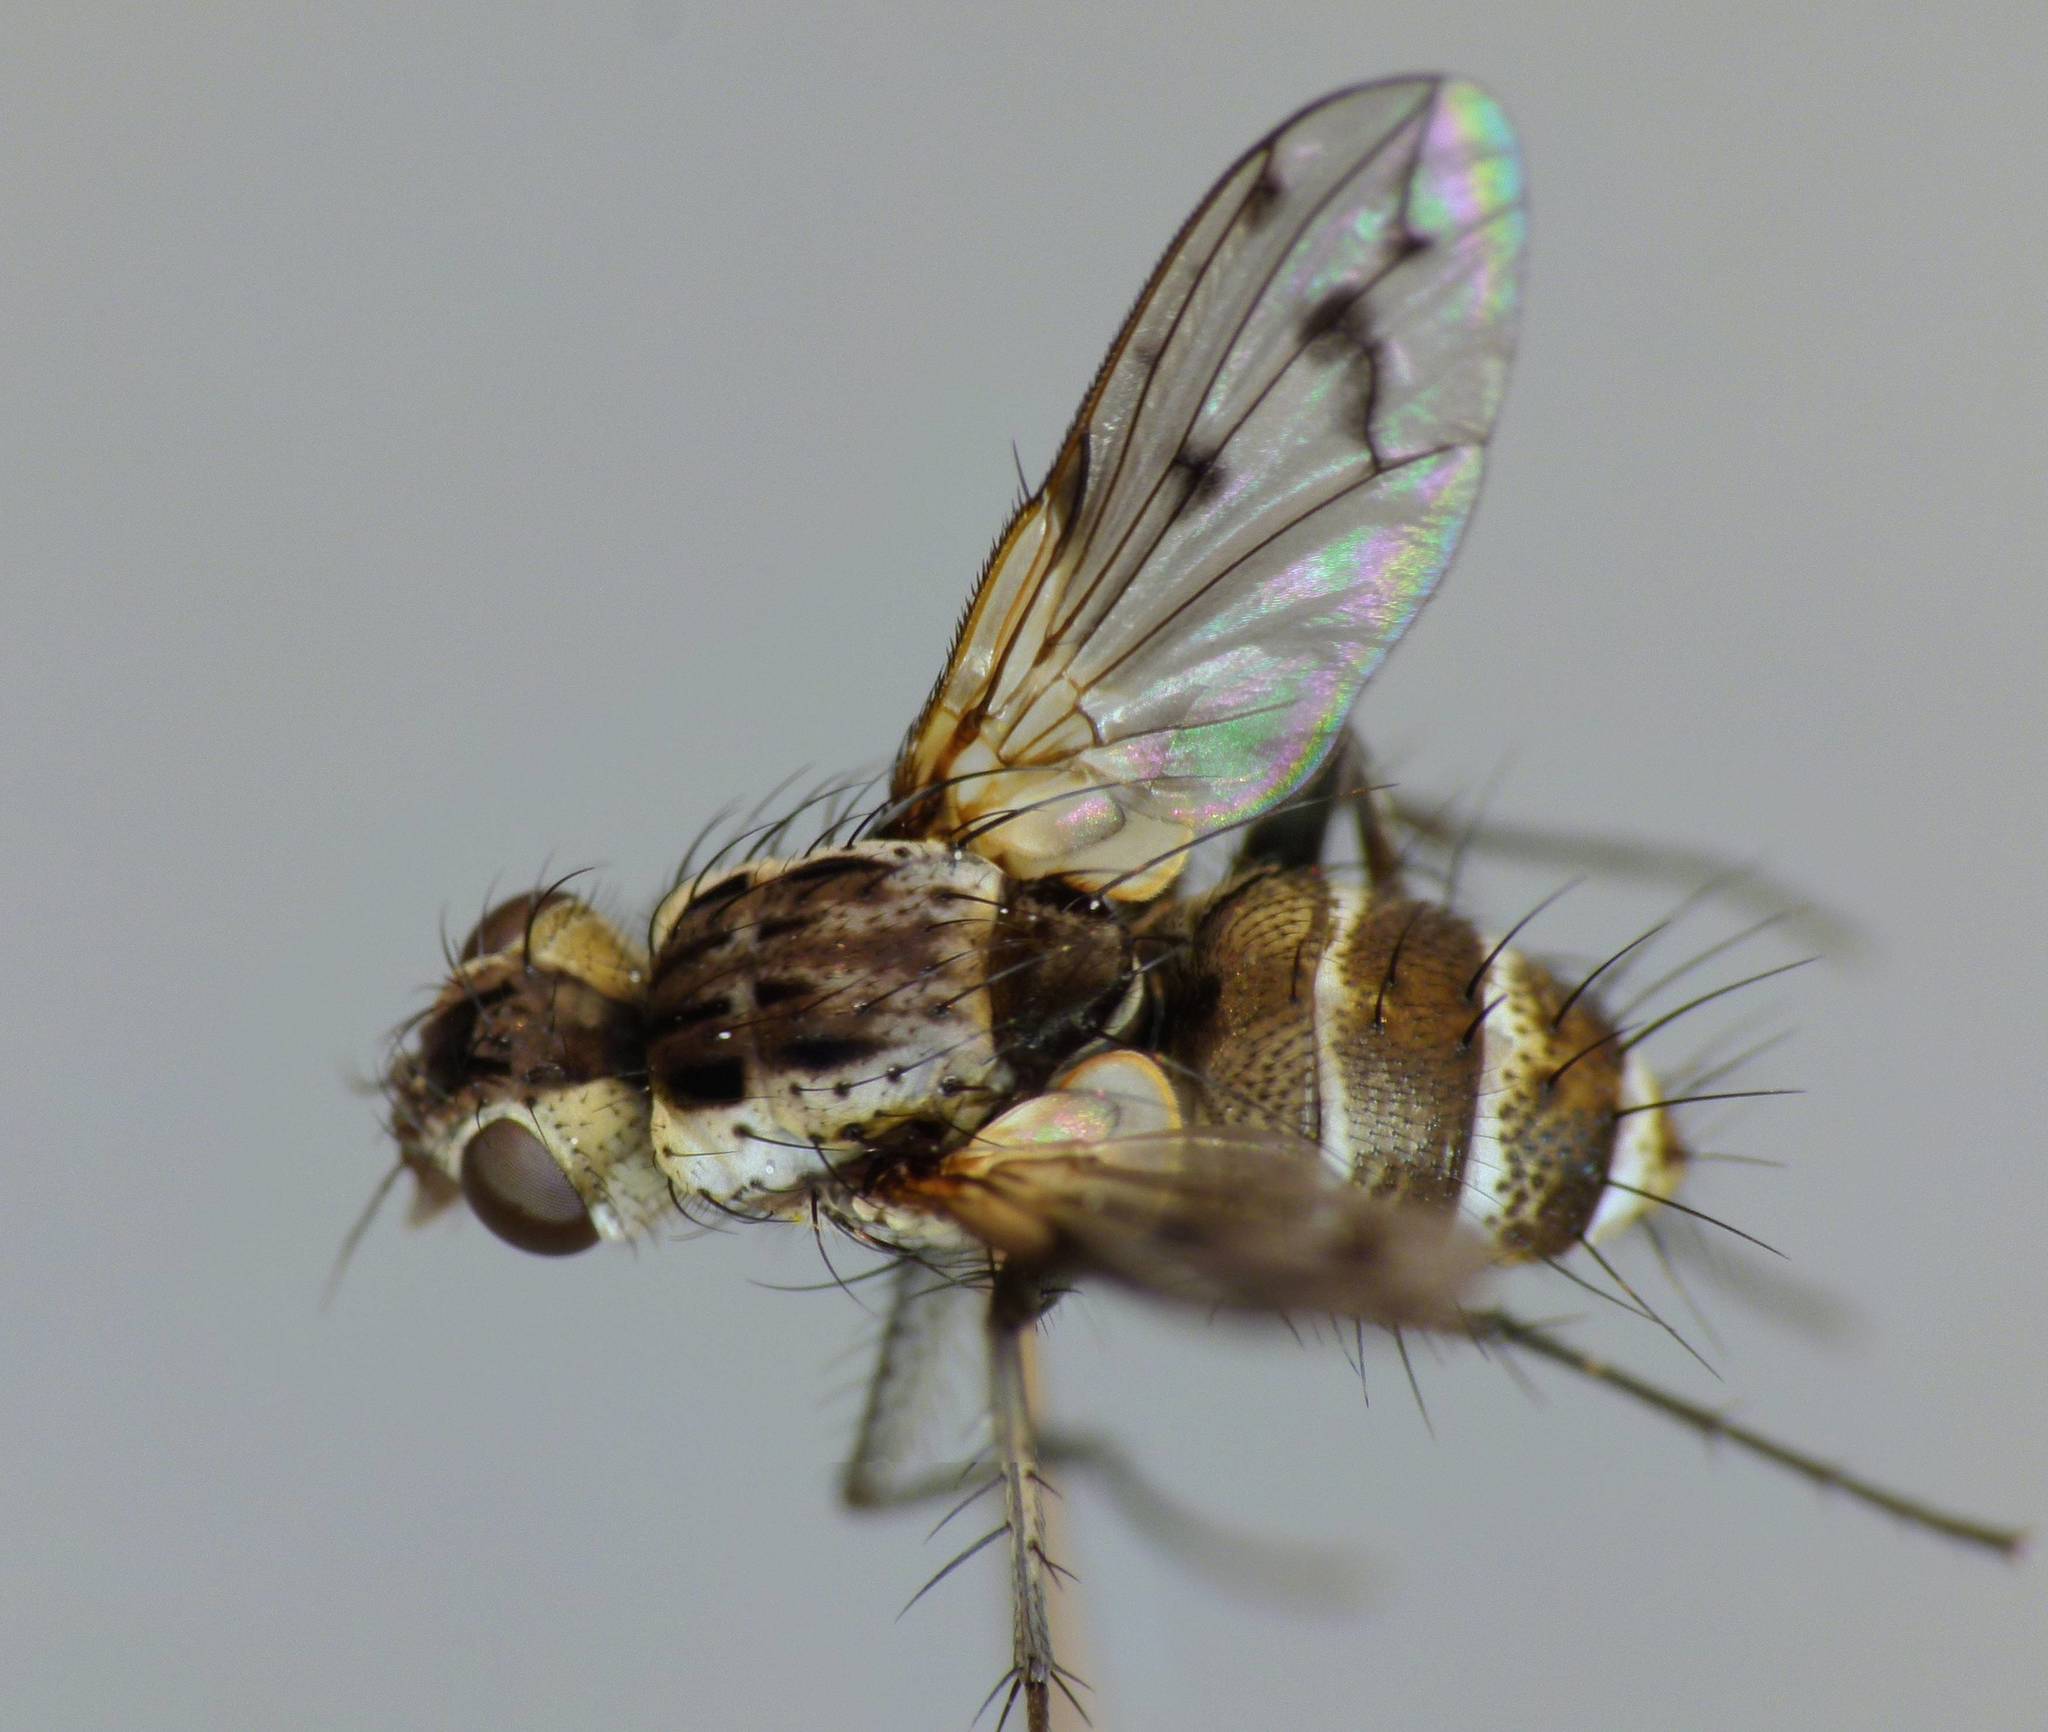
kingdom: Animalia
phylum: Arthropoda
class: Insecta
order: Diptera
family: Tachinidae
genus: Heteria
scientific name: Heteria appendiculata
